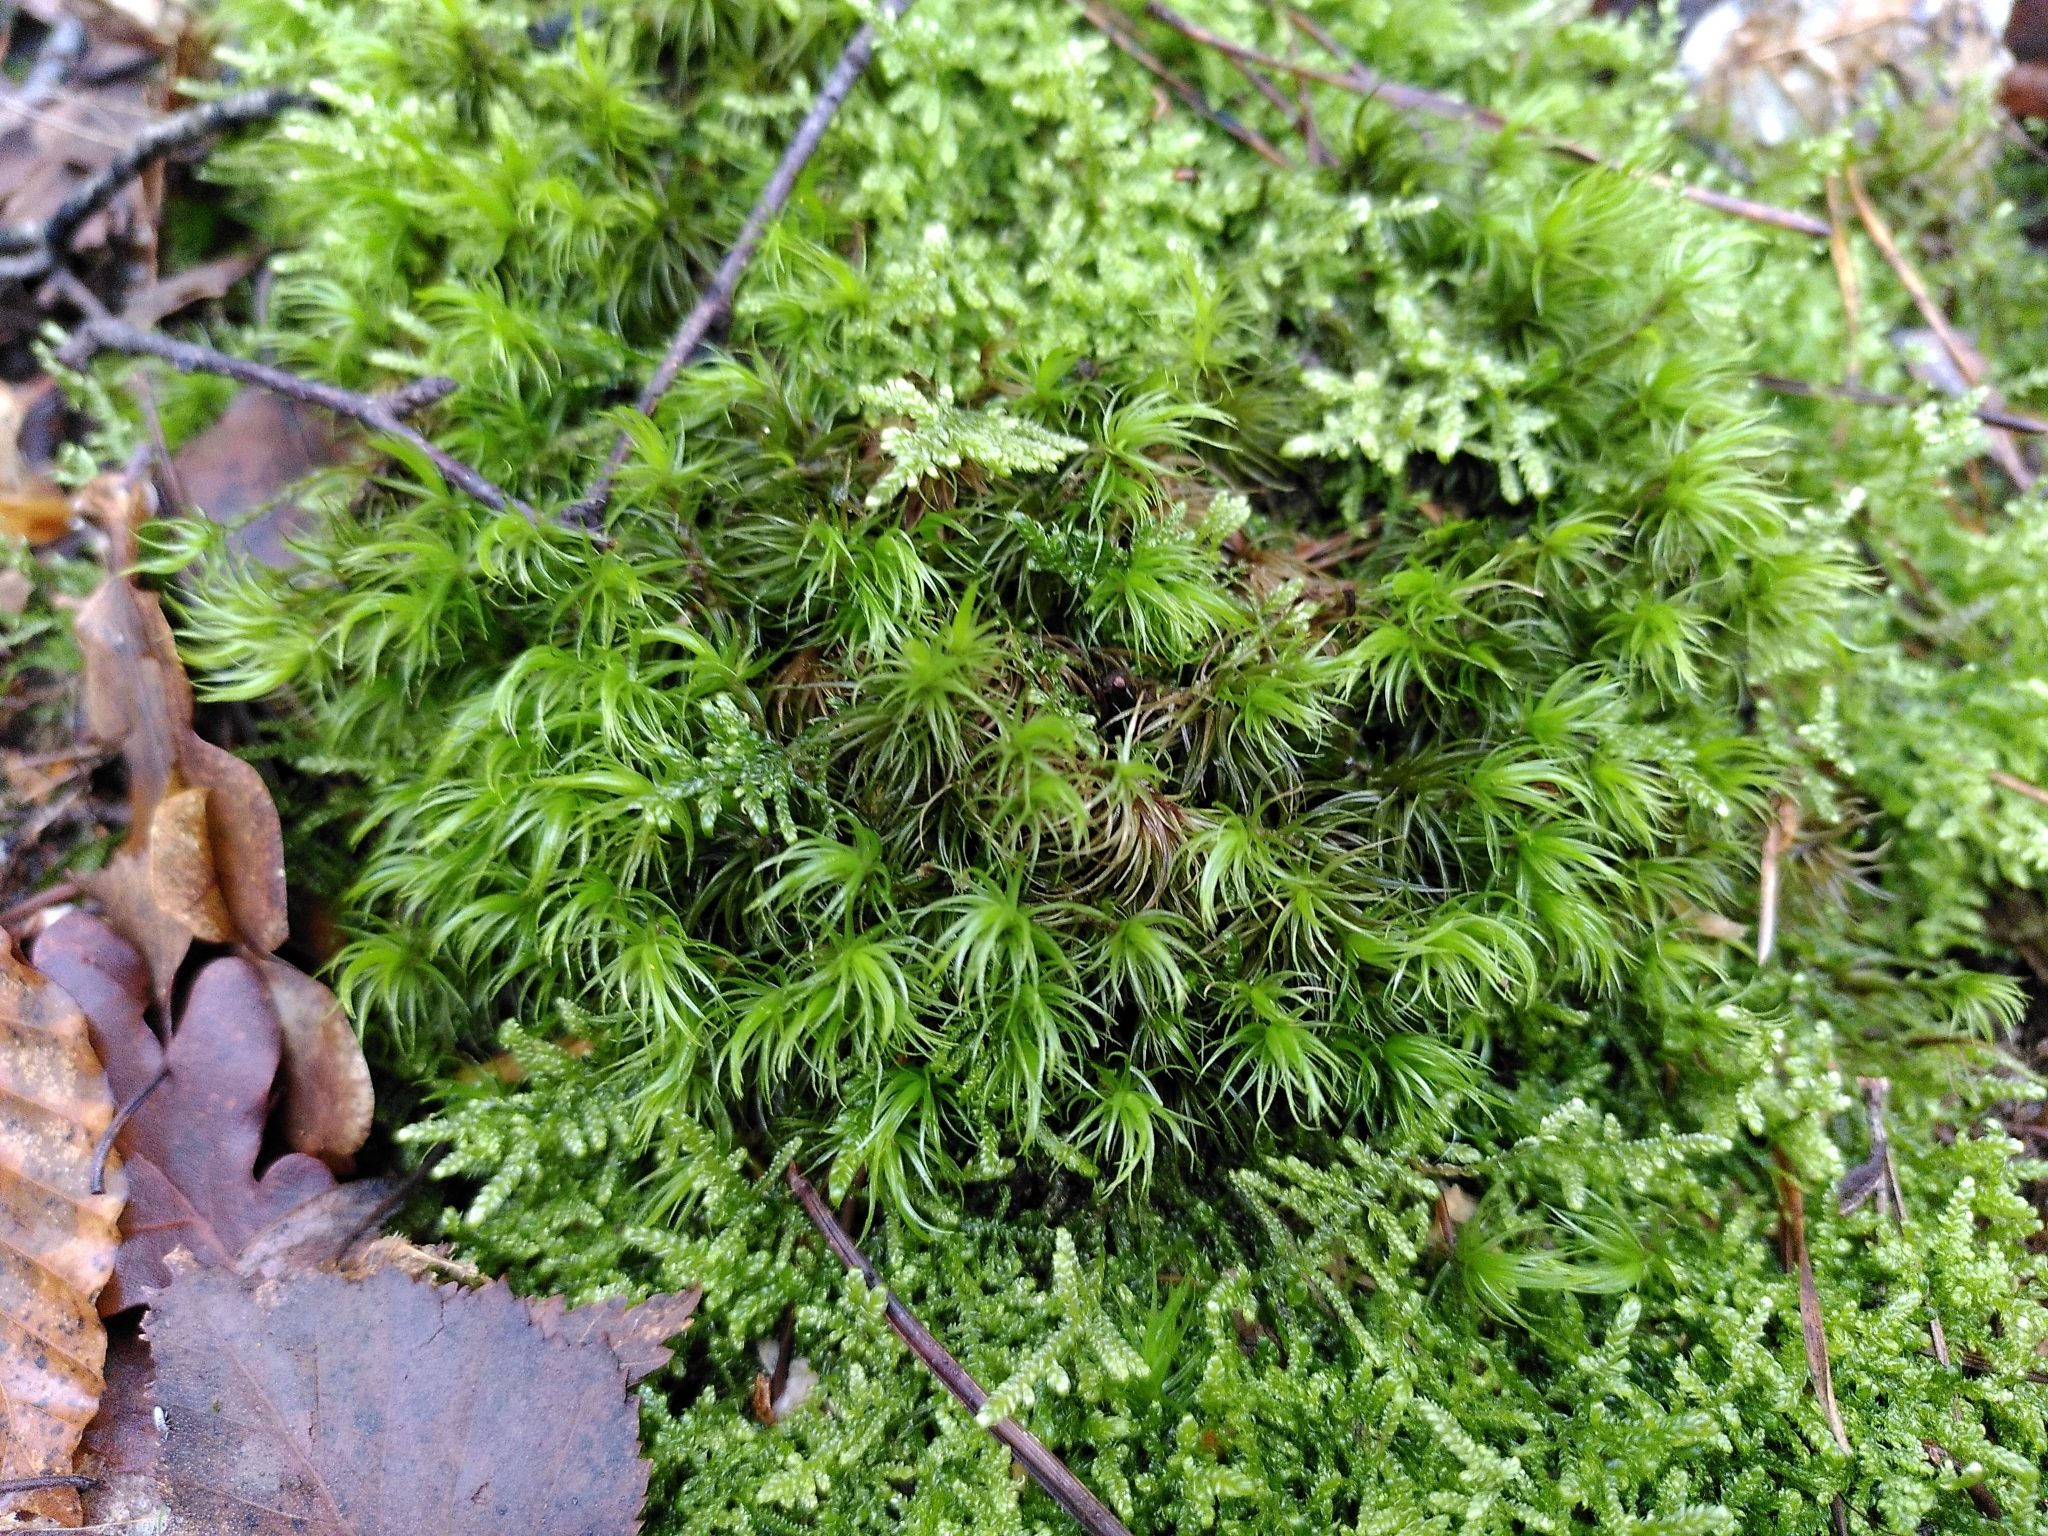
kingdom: Plantae
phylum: Bryophyta
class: Bryopsida
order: Dicranales
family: Dicranaceae
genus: Dicranum
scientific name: Dicranum scoparium
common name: Broom fork-moss
